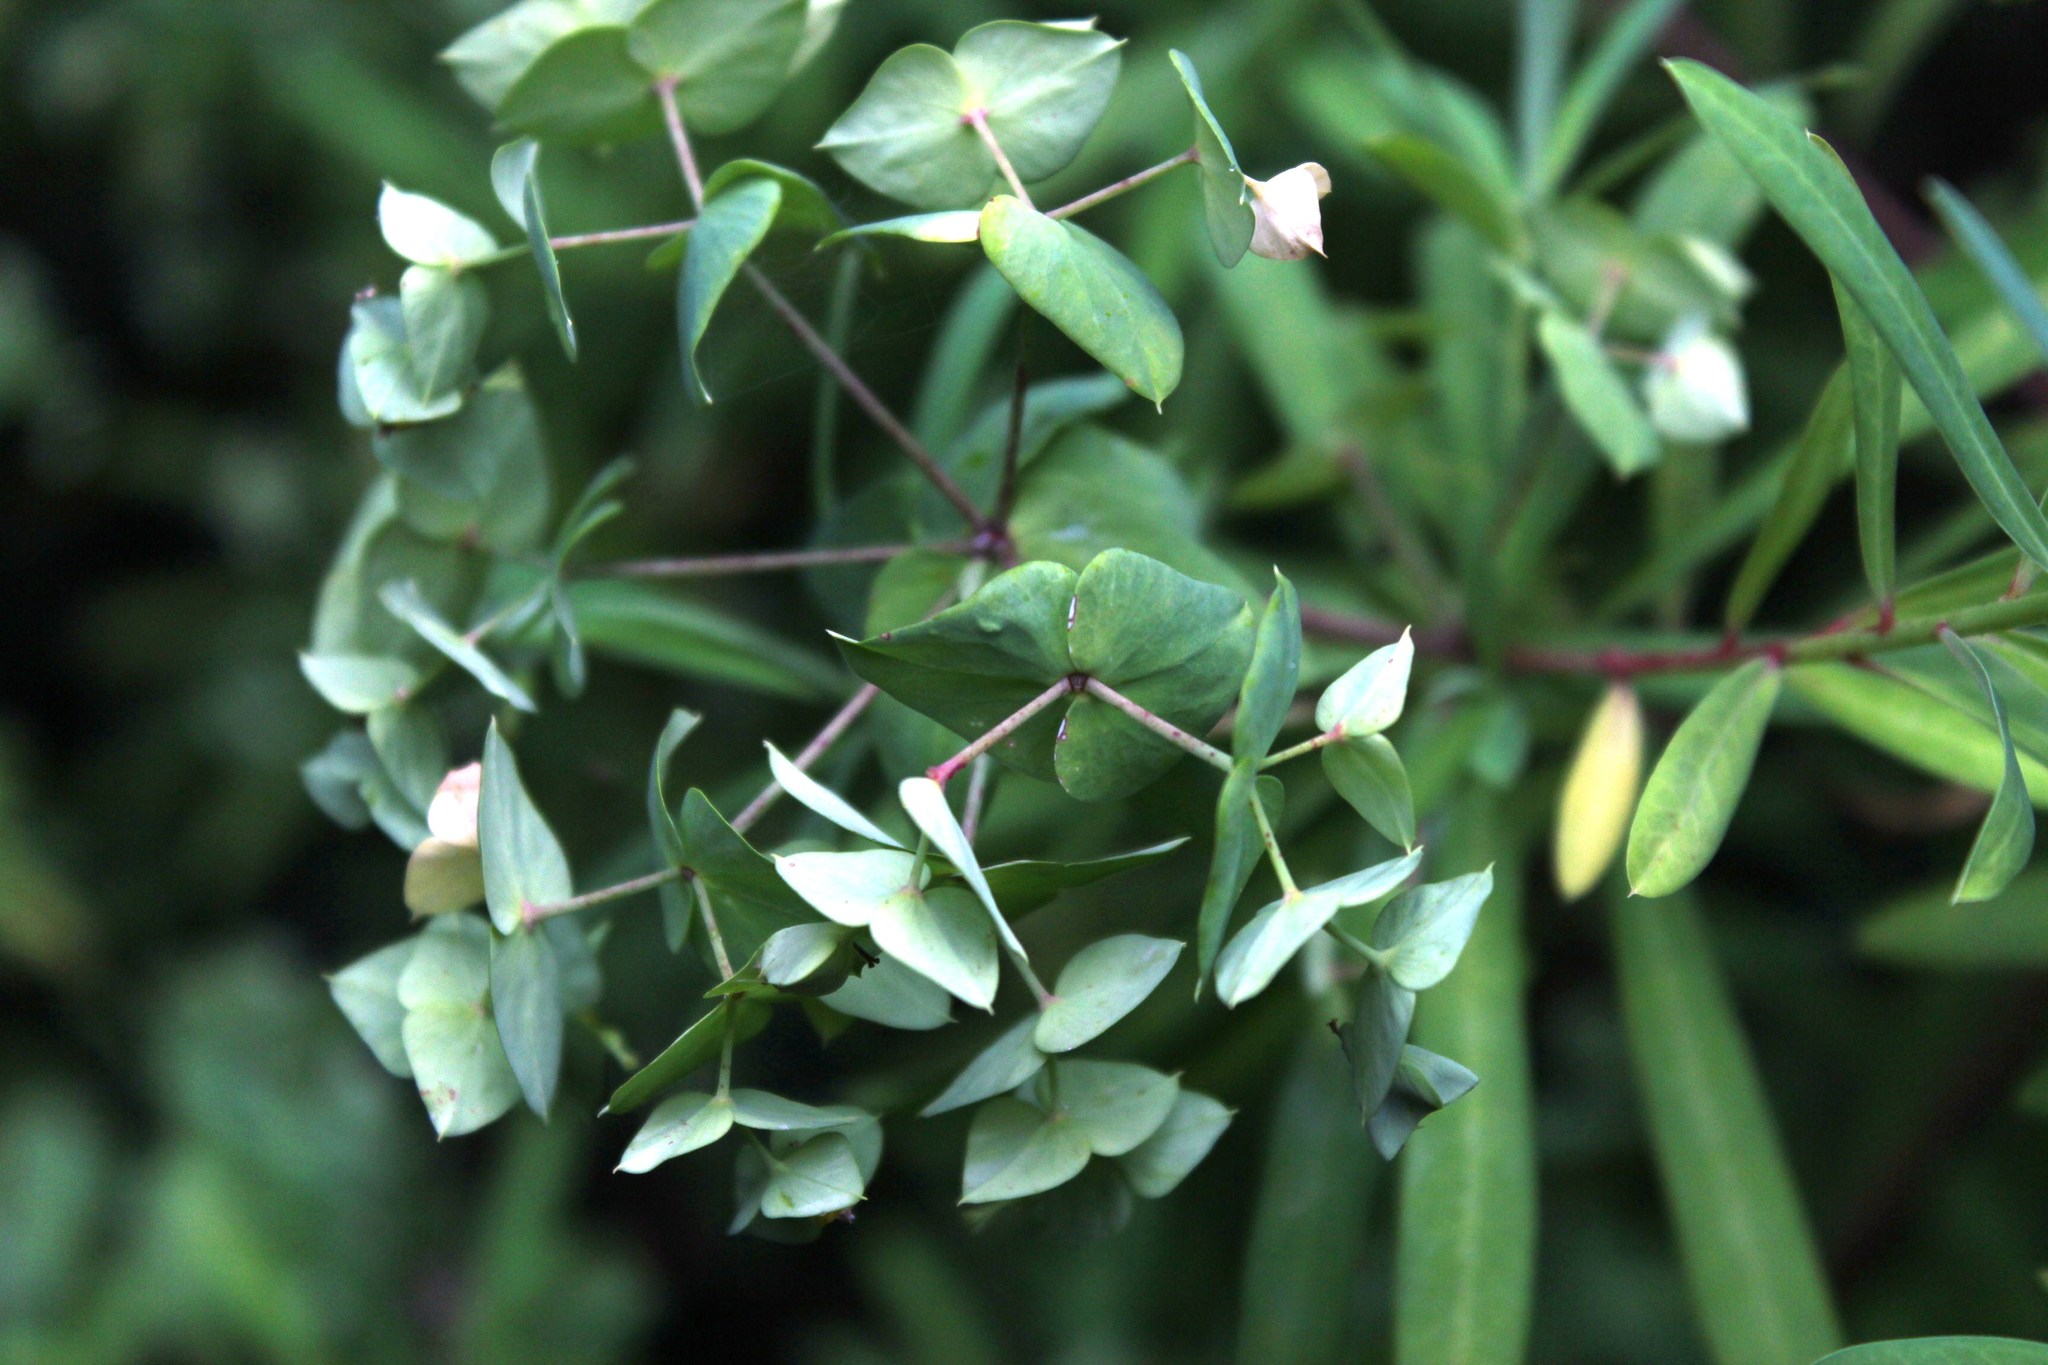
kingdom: Plantae
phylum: Tracheophyta
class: Magnoliopsida
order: Malpighiales
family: Euphorbiaceae
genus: Euphorbia
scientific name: Euphorbia kraussiana
